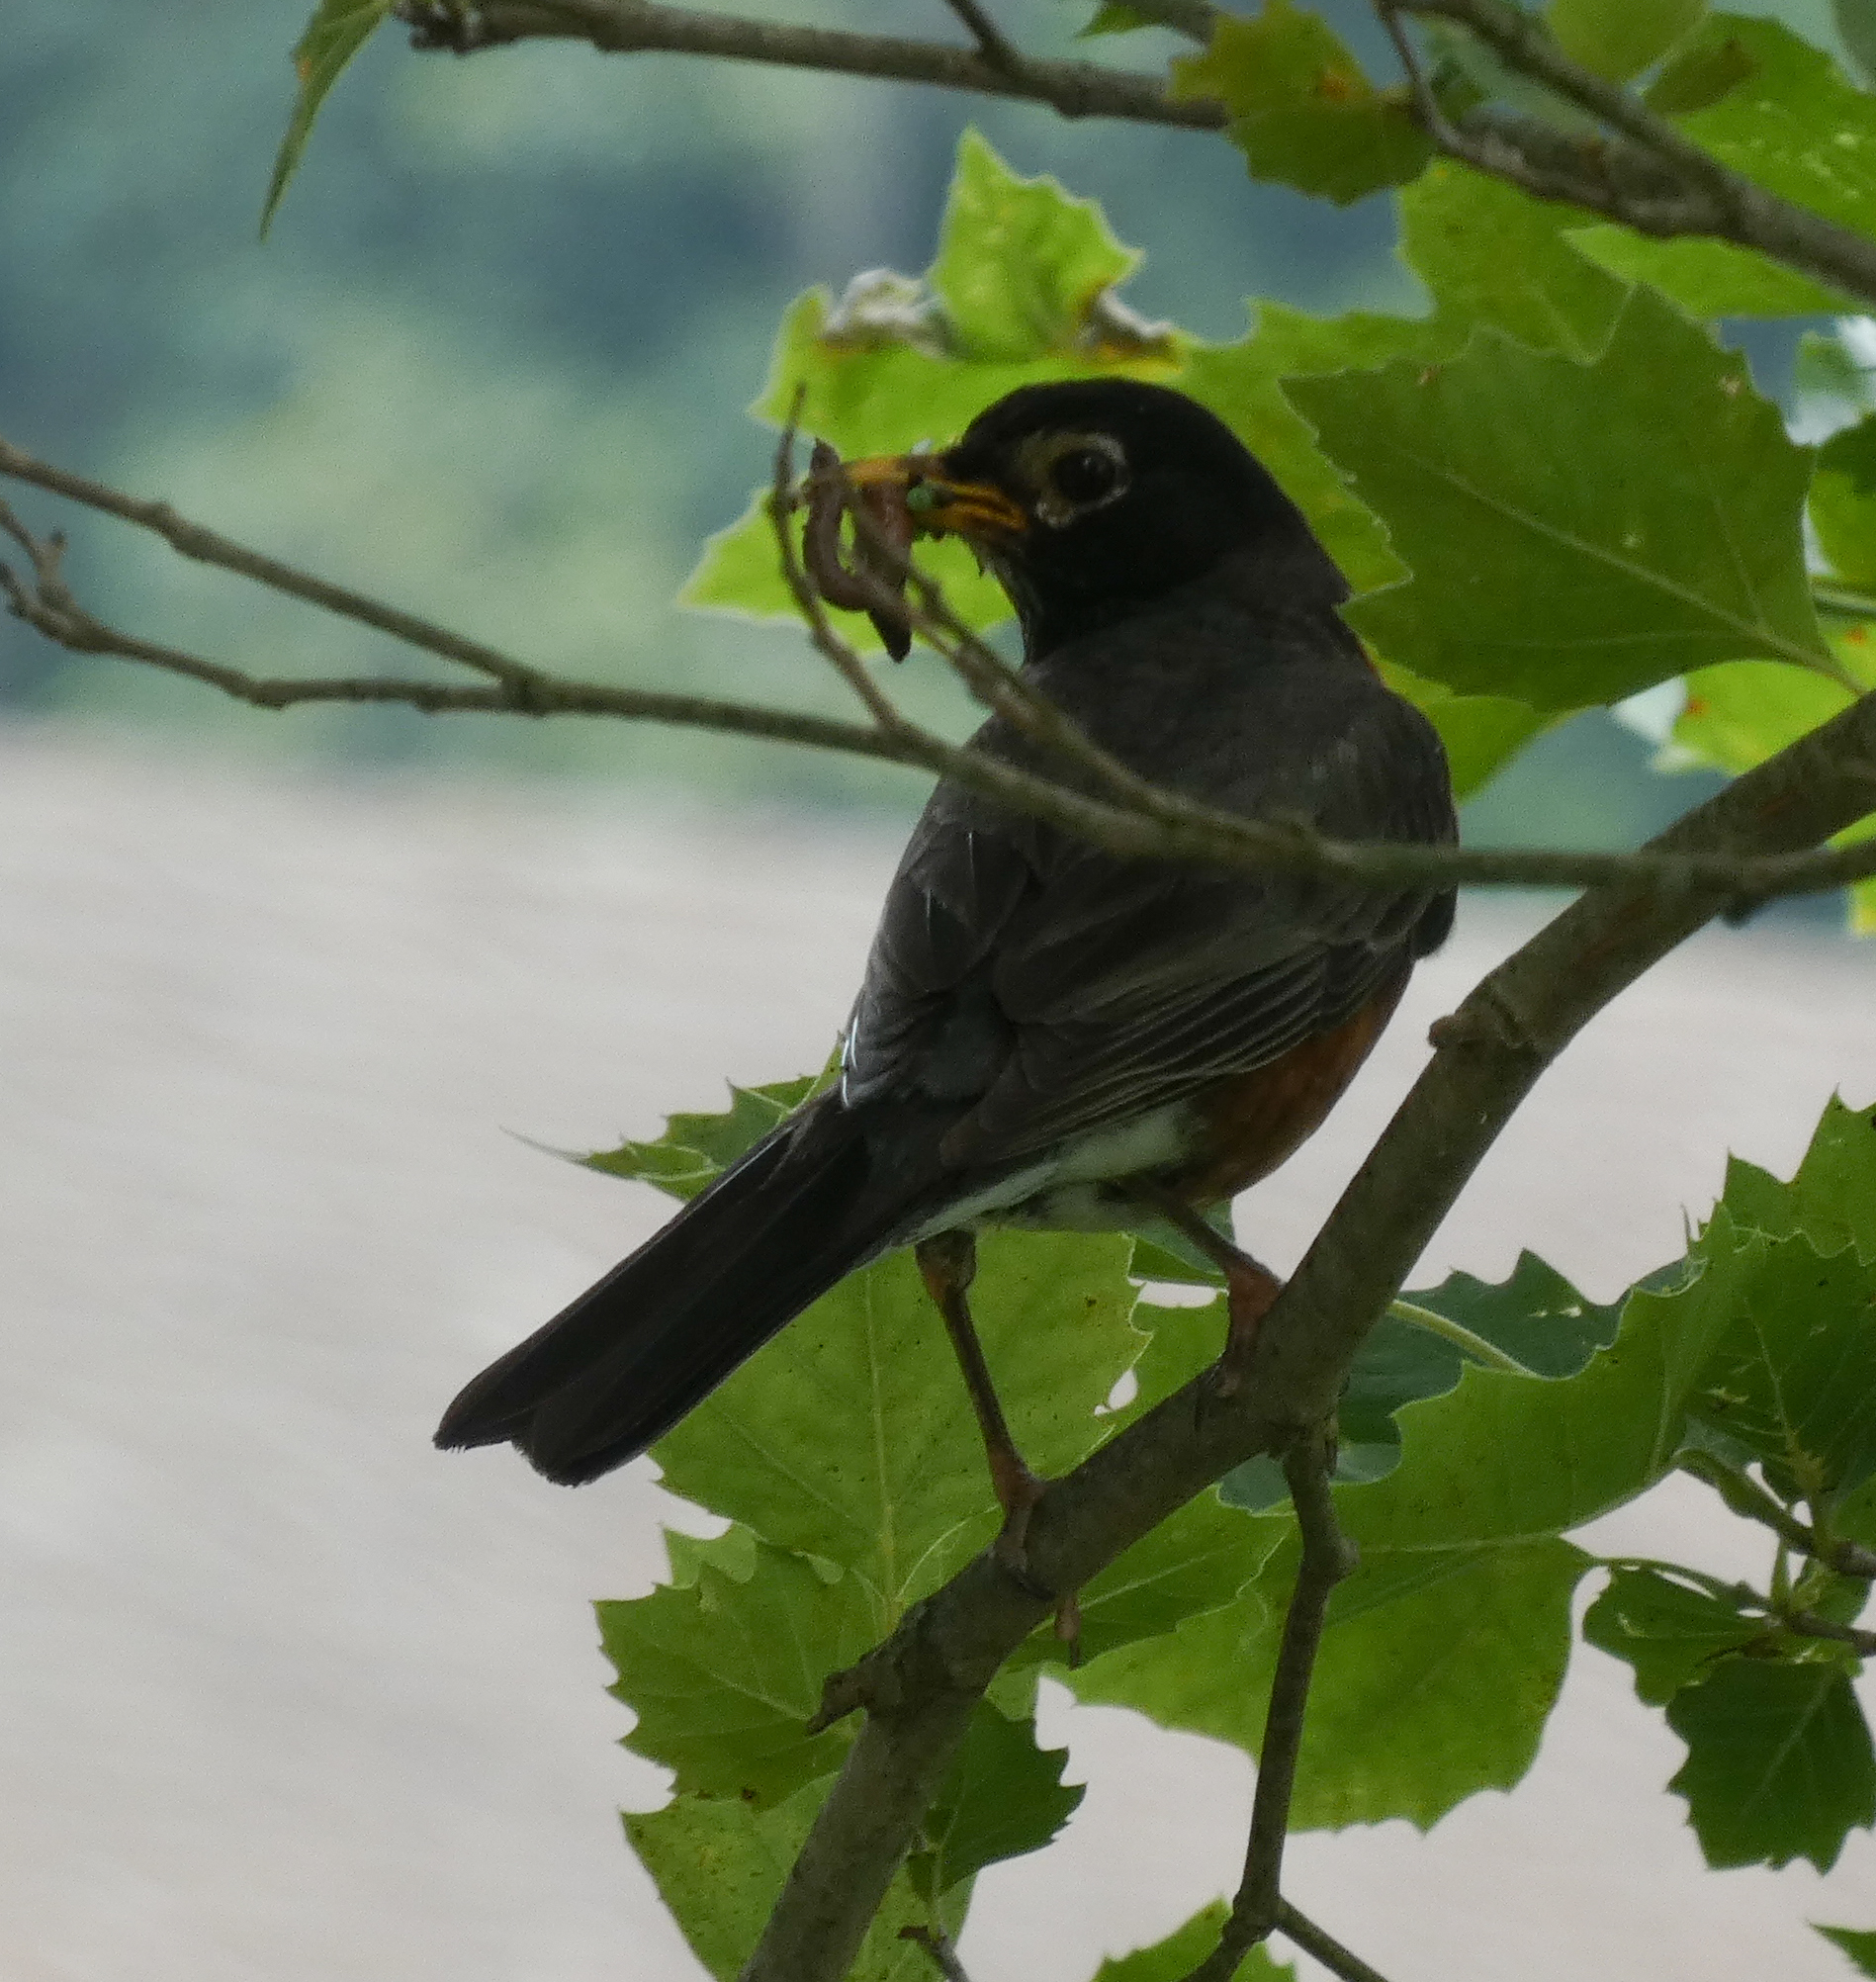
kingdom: Animalia
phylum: Chordata
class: Aves
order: Passeriformes
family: Turdidae
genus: Turdus
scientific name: Turdus migratorius
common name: American robin
